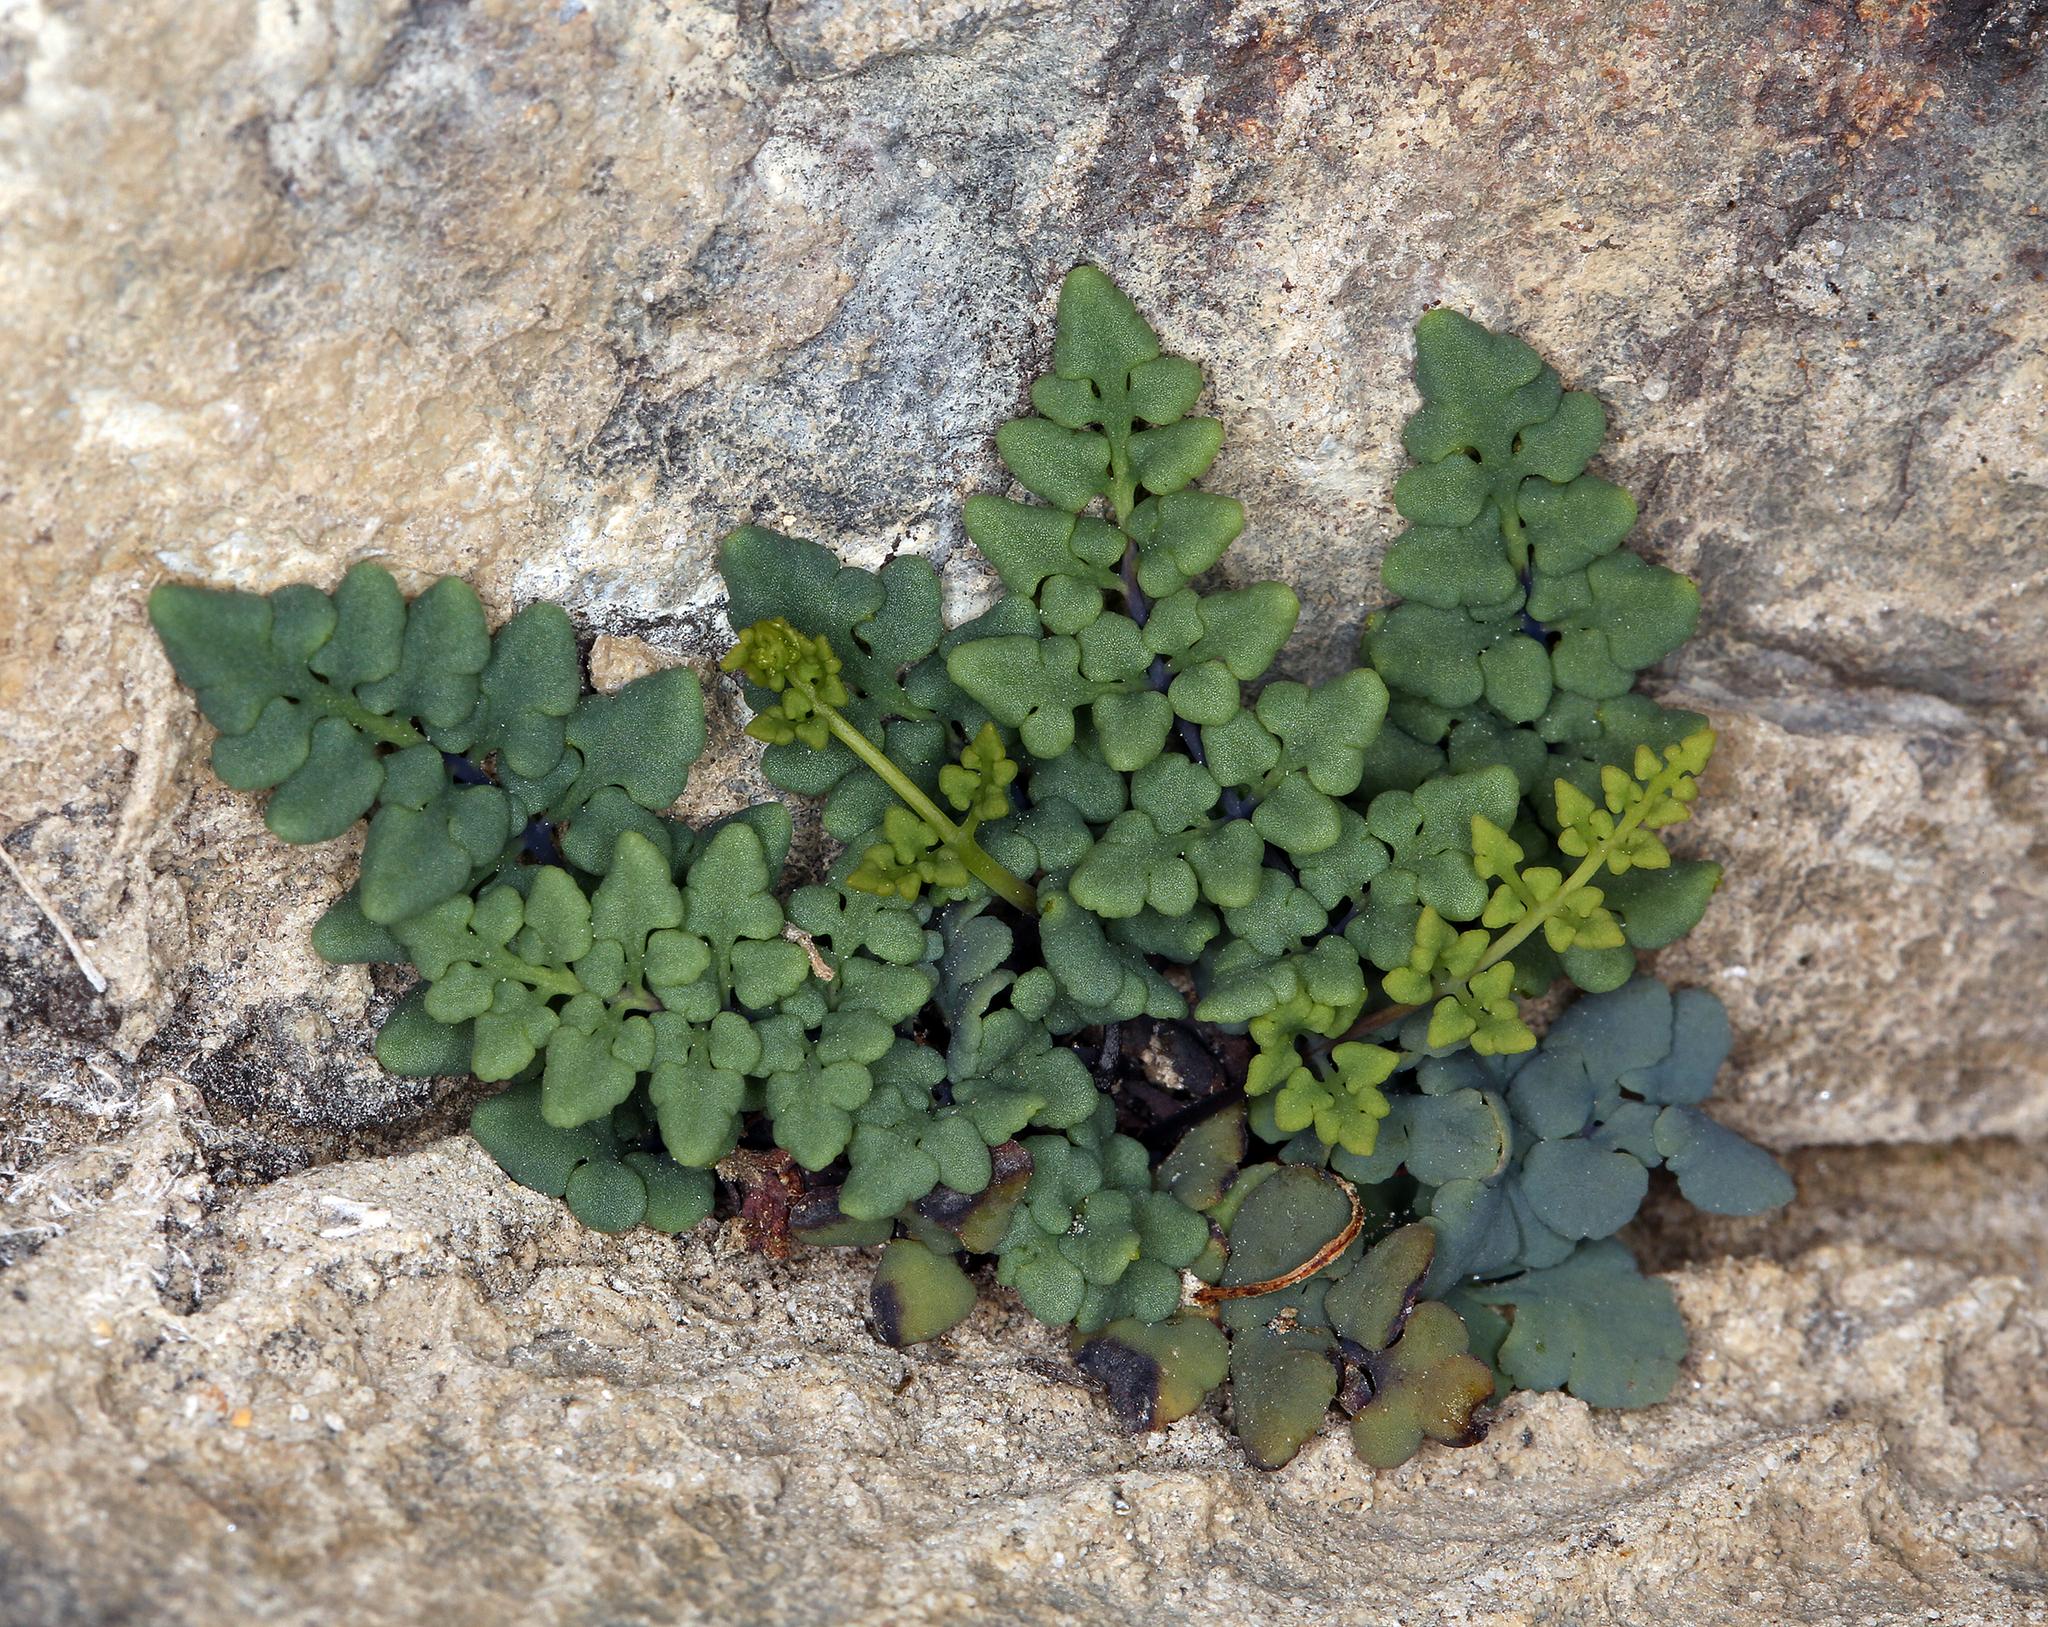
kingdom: Plantae
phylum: Tracheophyta
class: Polypodiopsida
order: Polypodiales
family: Pteridaceae
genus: Argyrochosma
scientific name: Argyrochosma jonesii
